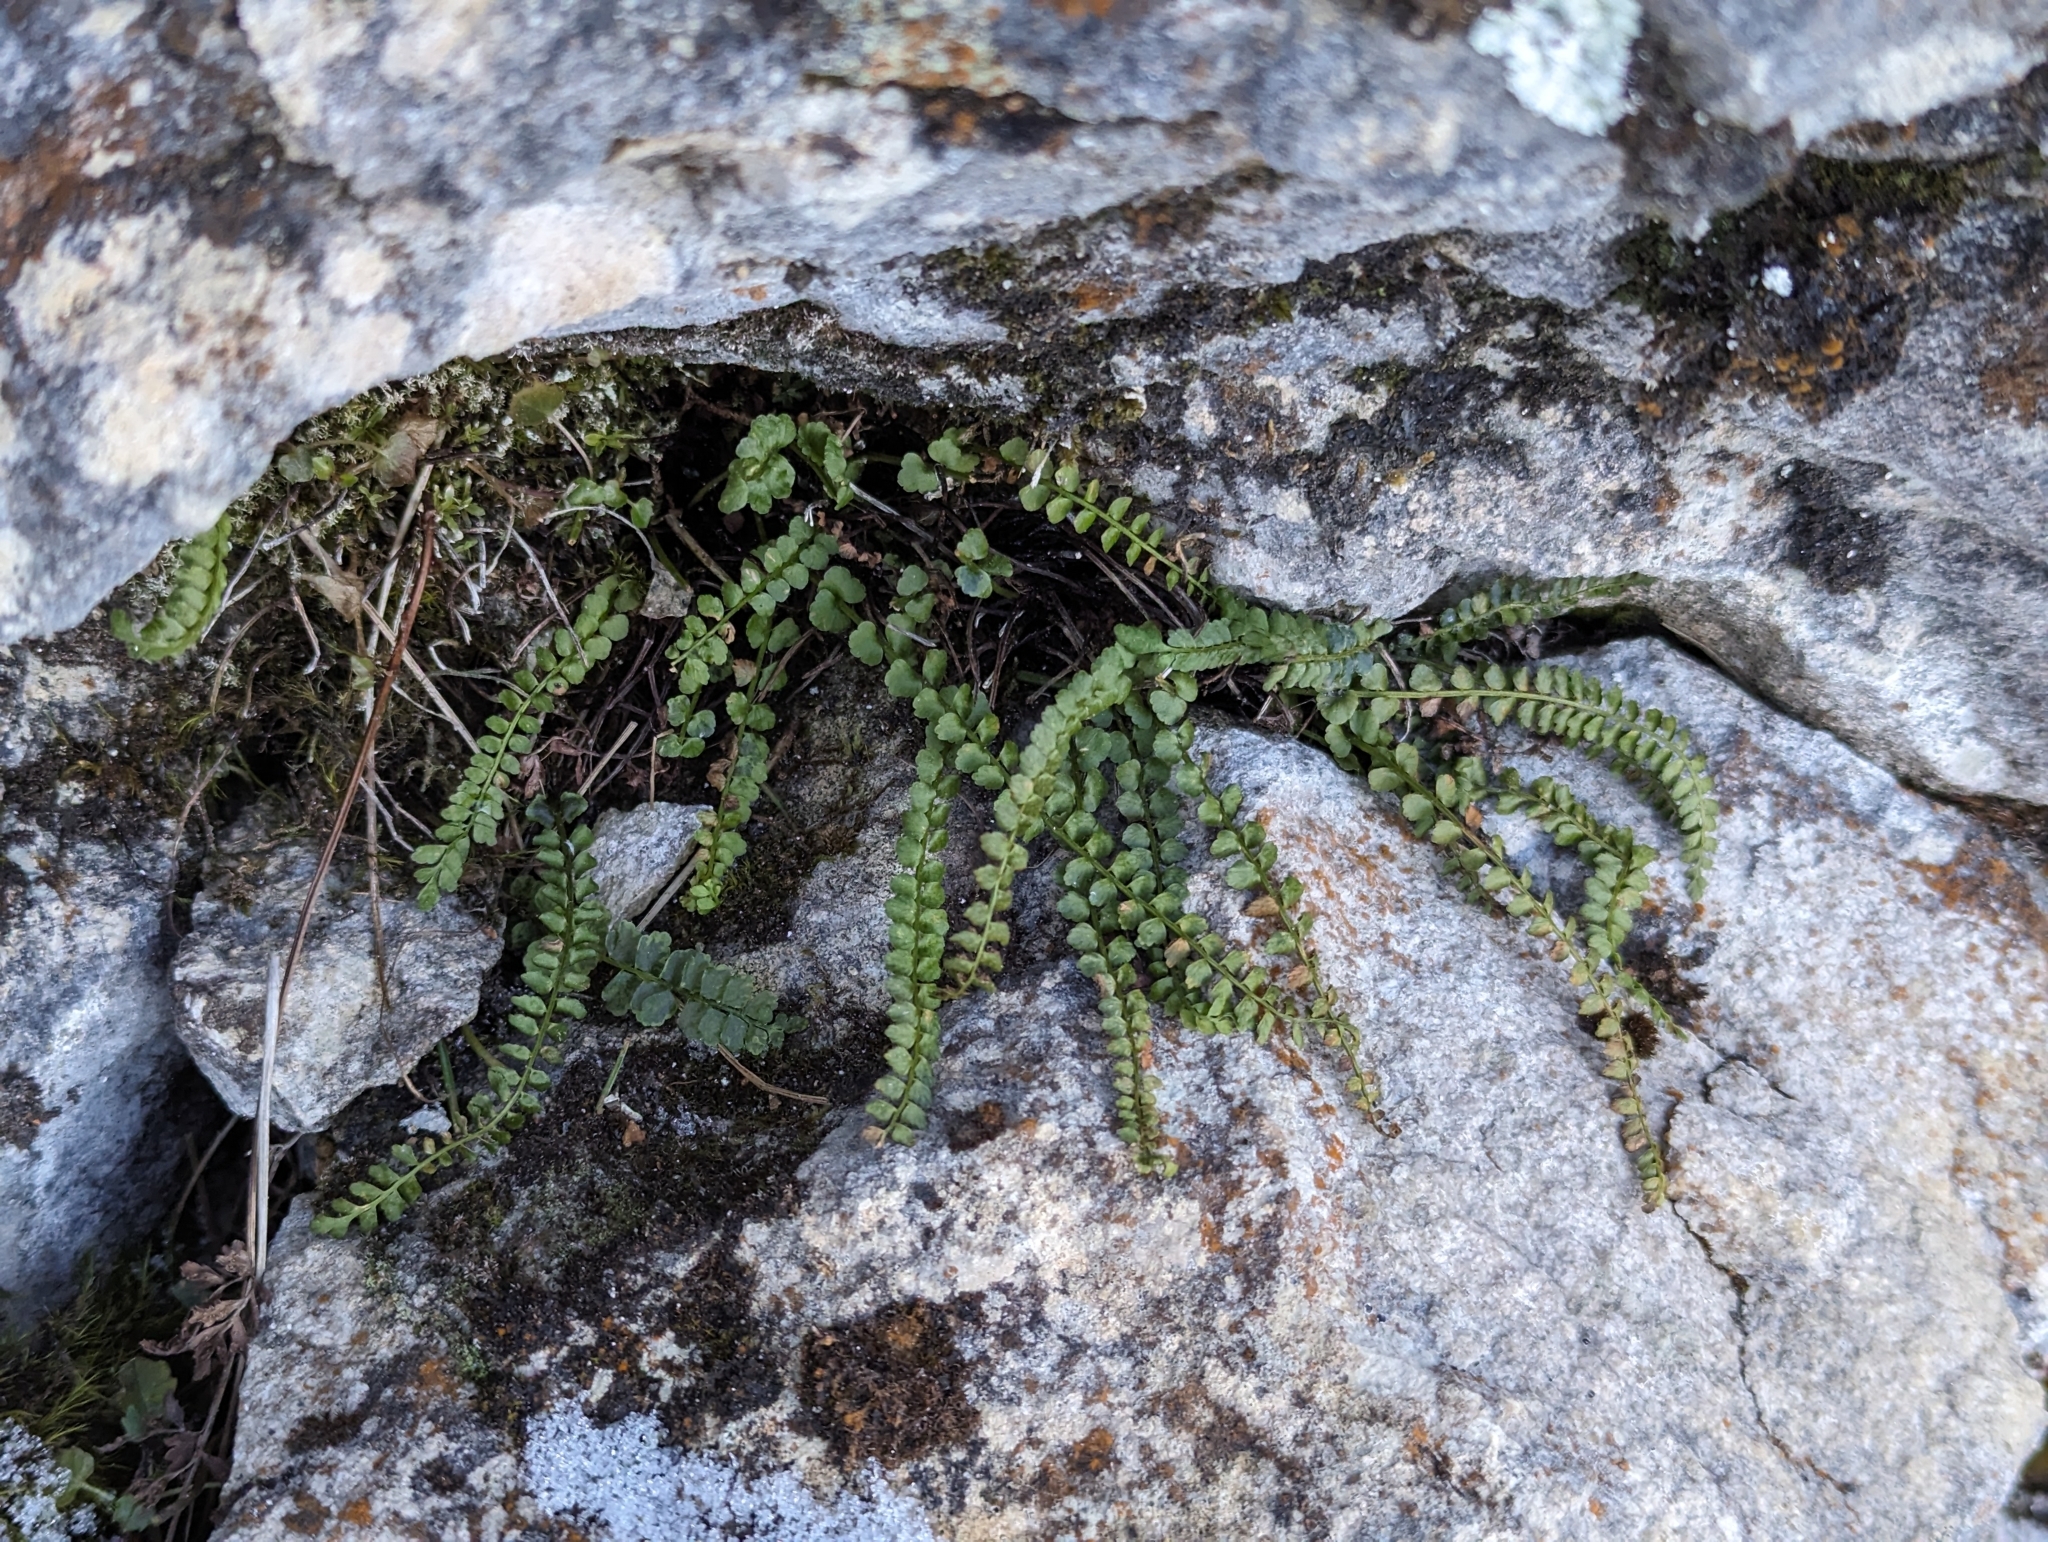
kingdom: Plantae
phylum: Tracheophyta
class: Polypodiopsida
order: Polypodiales
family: Aspleniaceae
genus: Asplenium
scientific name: Asplenium viride
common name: Green spleenwort
